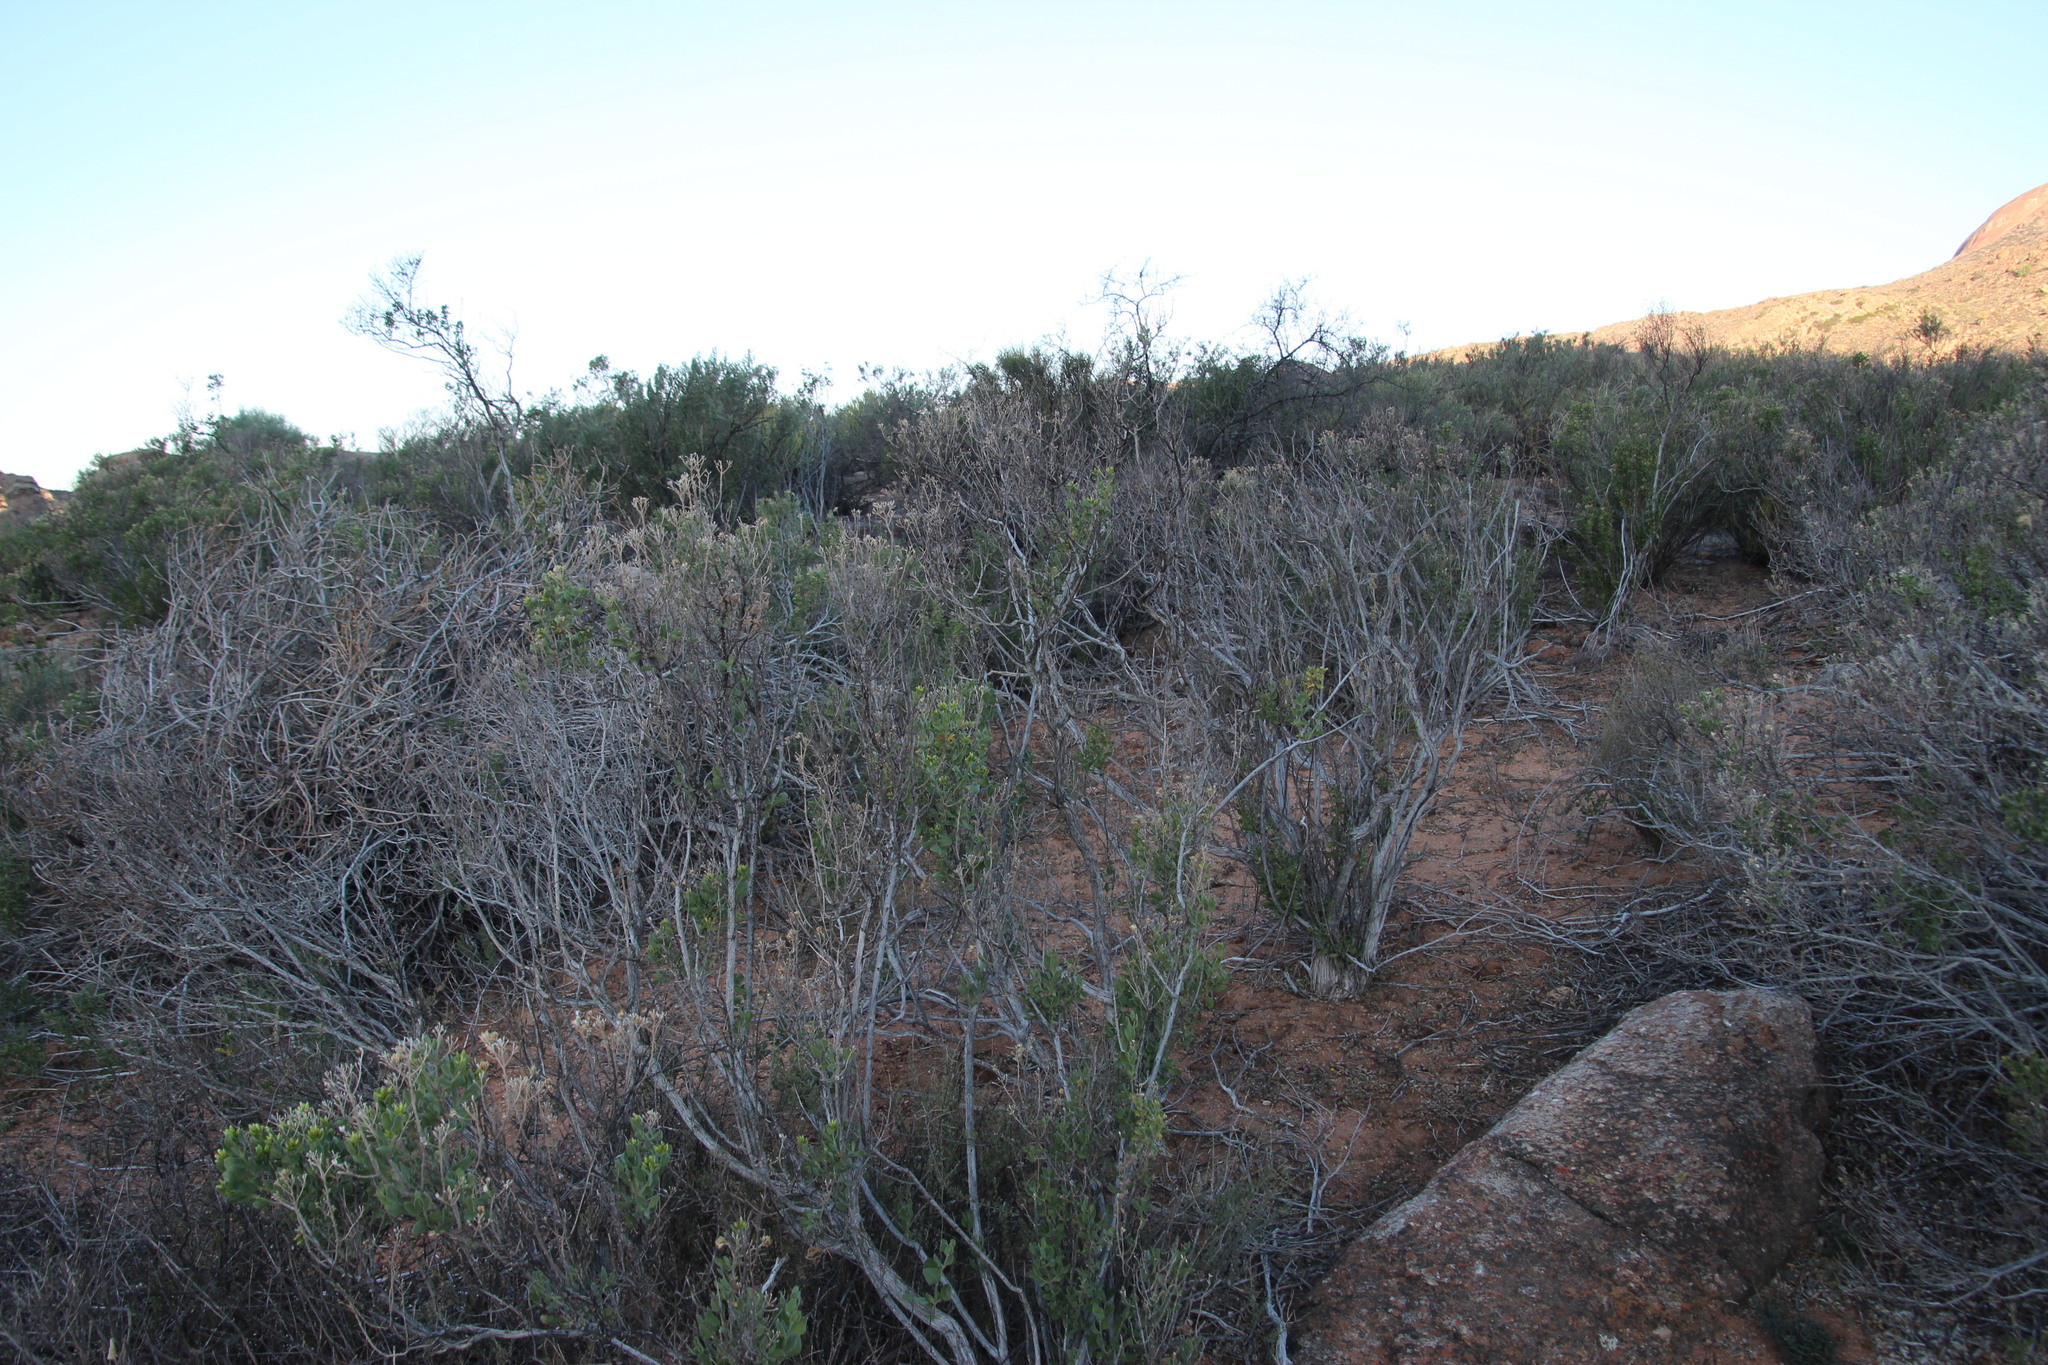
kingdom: Plantae
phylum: Tracheophyta
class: Magnoliopsida
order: Asterales
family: Asteraceae
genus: Pteronia
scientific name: Pteronia divaricata
